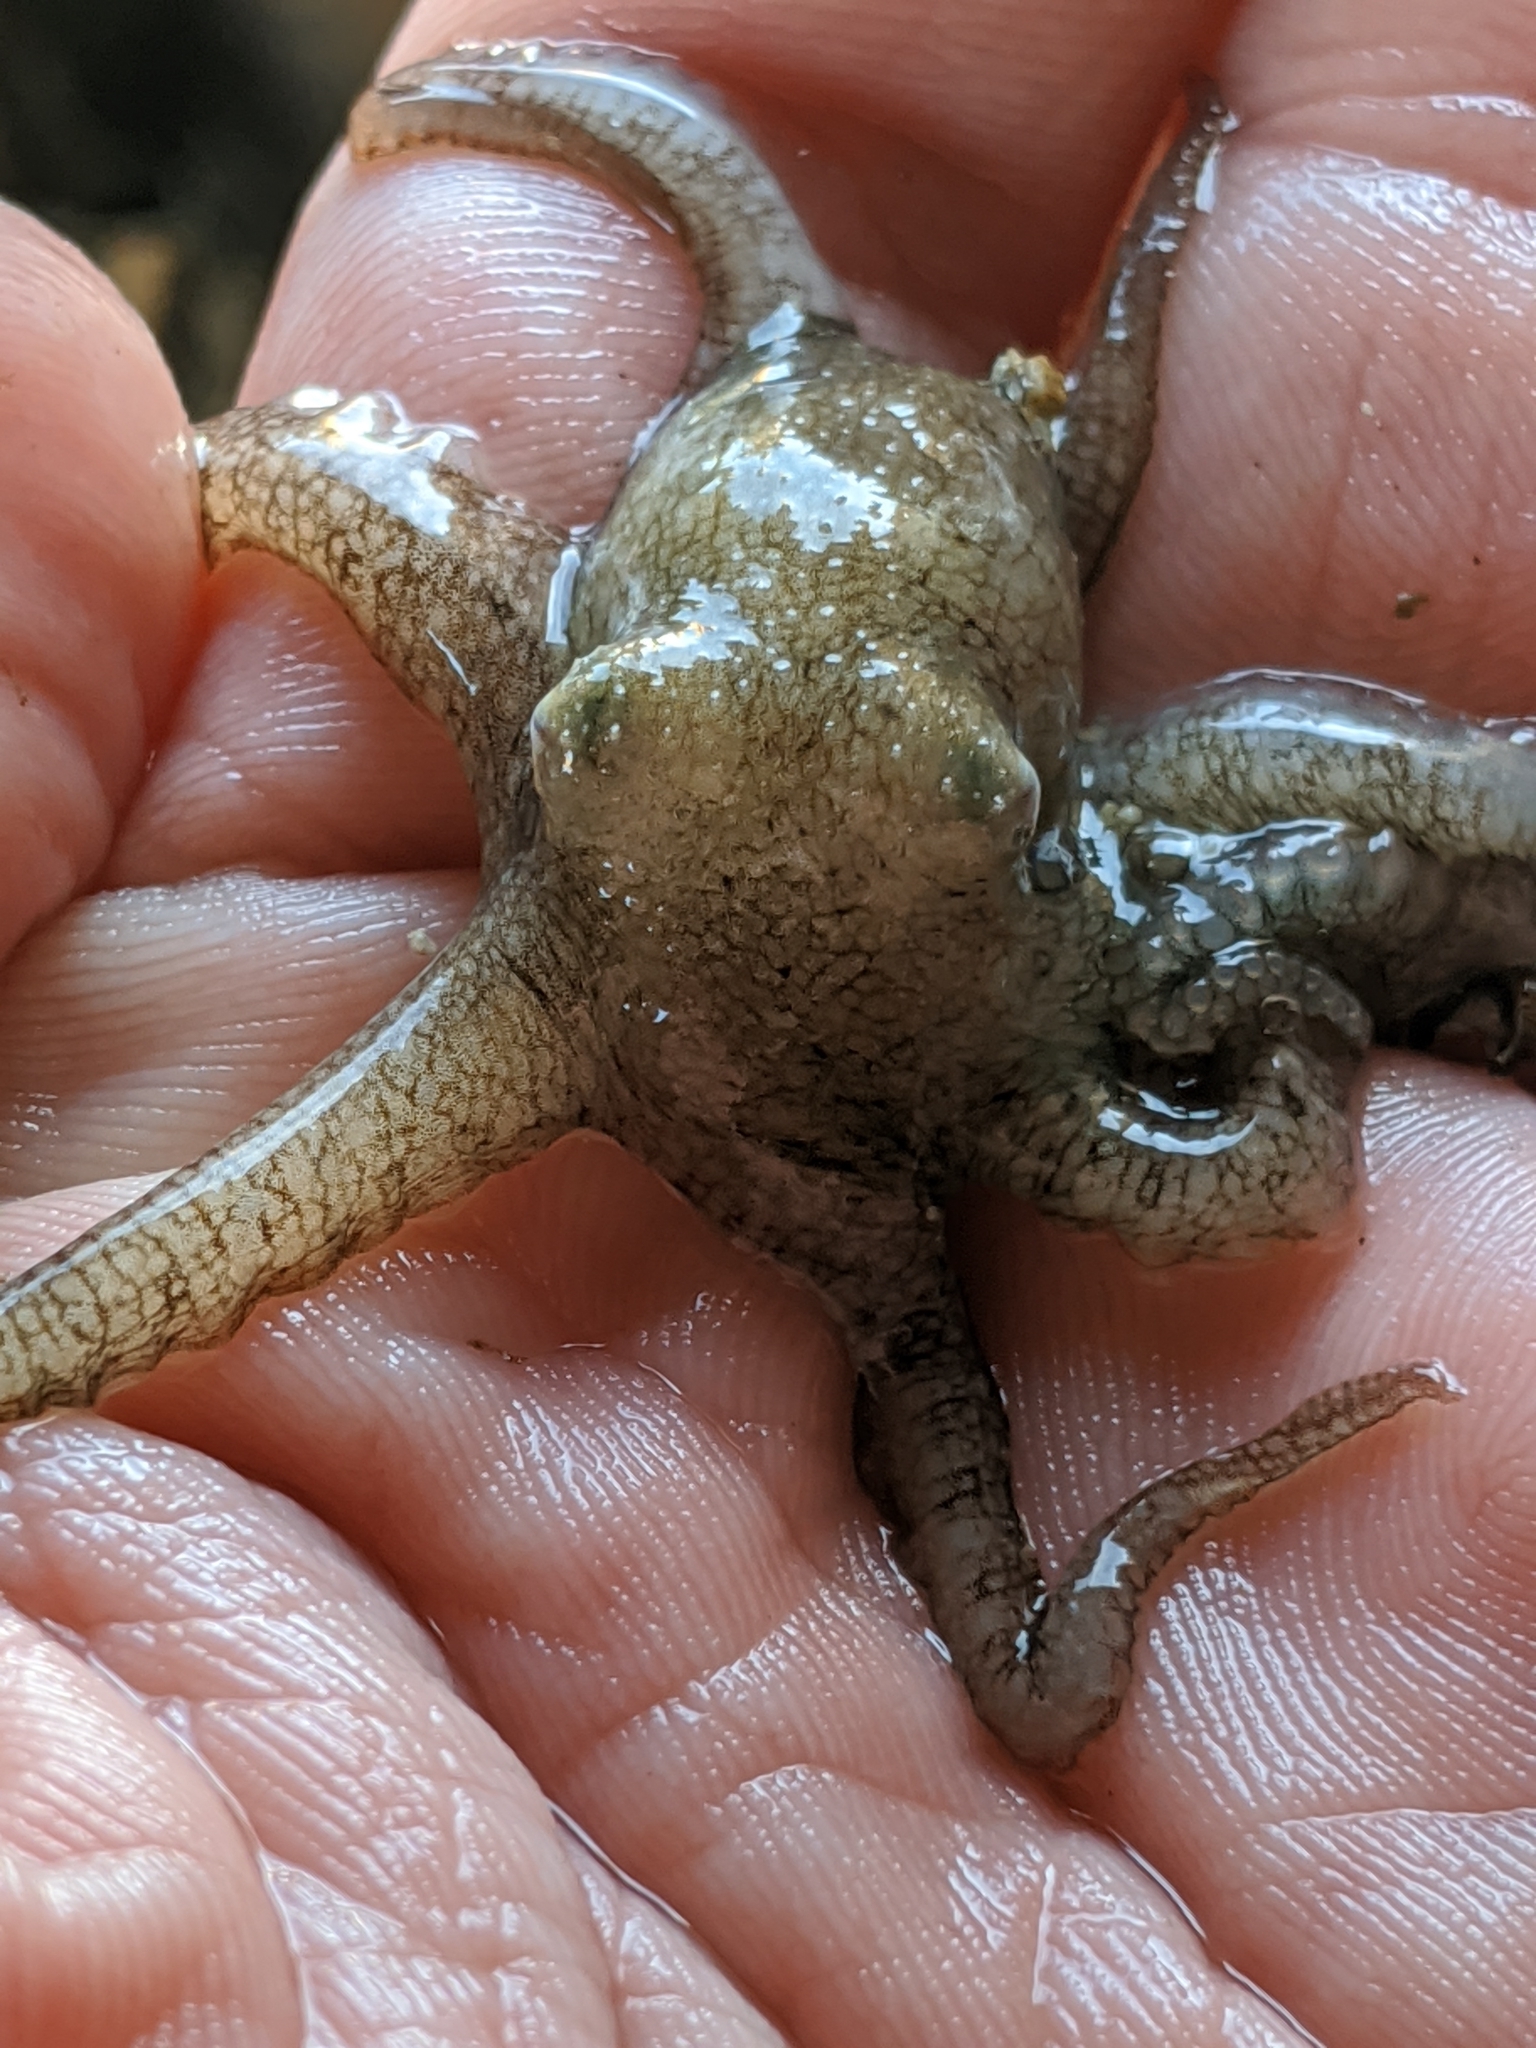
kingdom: Animalia
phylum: Mollusca
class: Cephalopoda
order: Octopoda
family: Octopodidae
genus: Octopus
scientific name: Octopus bimaculoides
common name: California two-spot octopus
